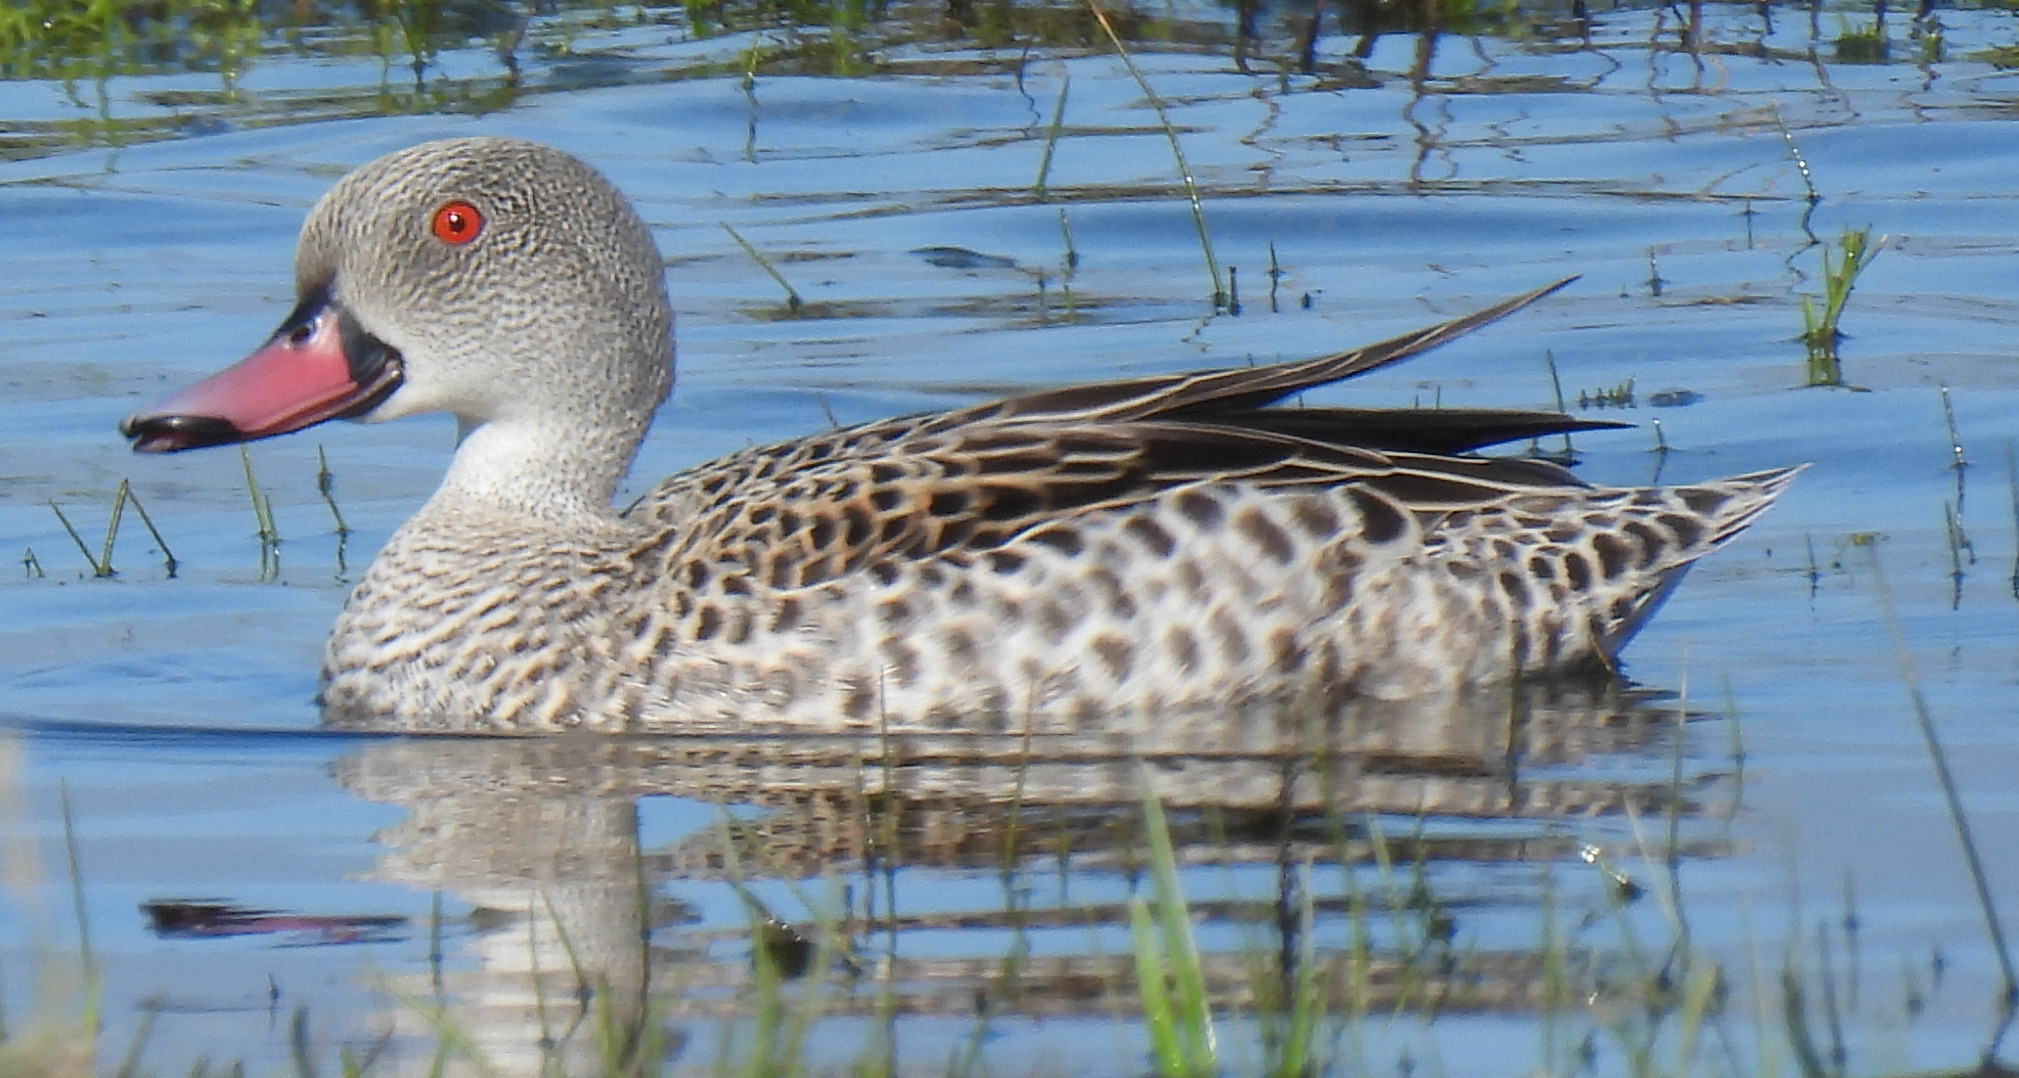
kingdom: Animalia
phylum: Chordata
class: Aves
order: Anseriformes
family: Anatidae
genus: Anas
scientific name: Anas capensis
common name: Cape teal
